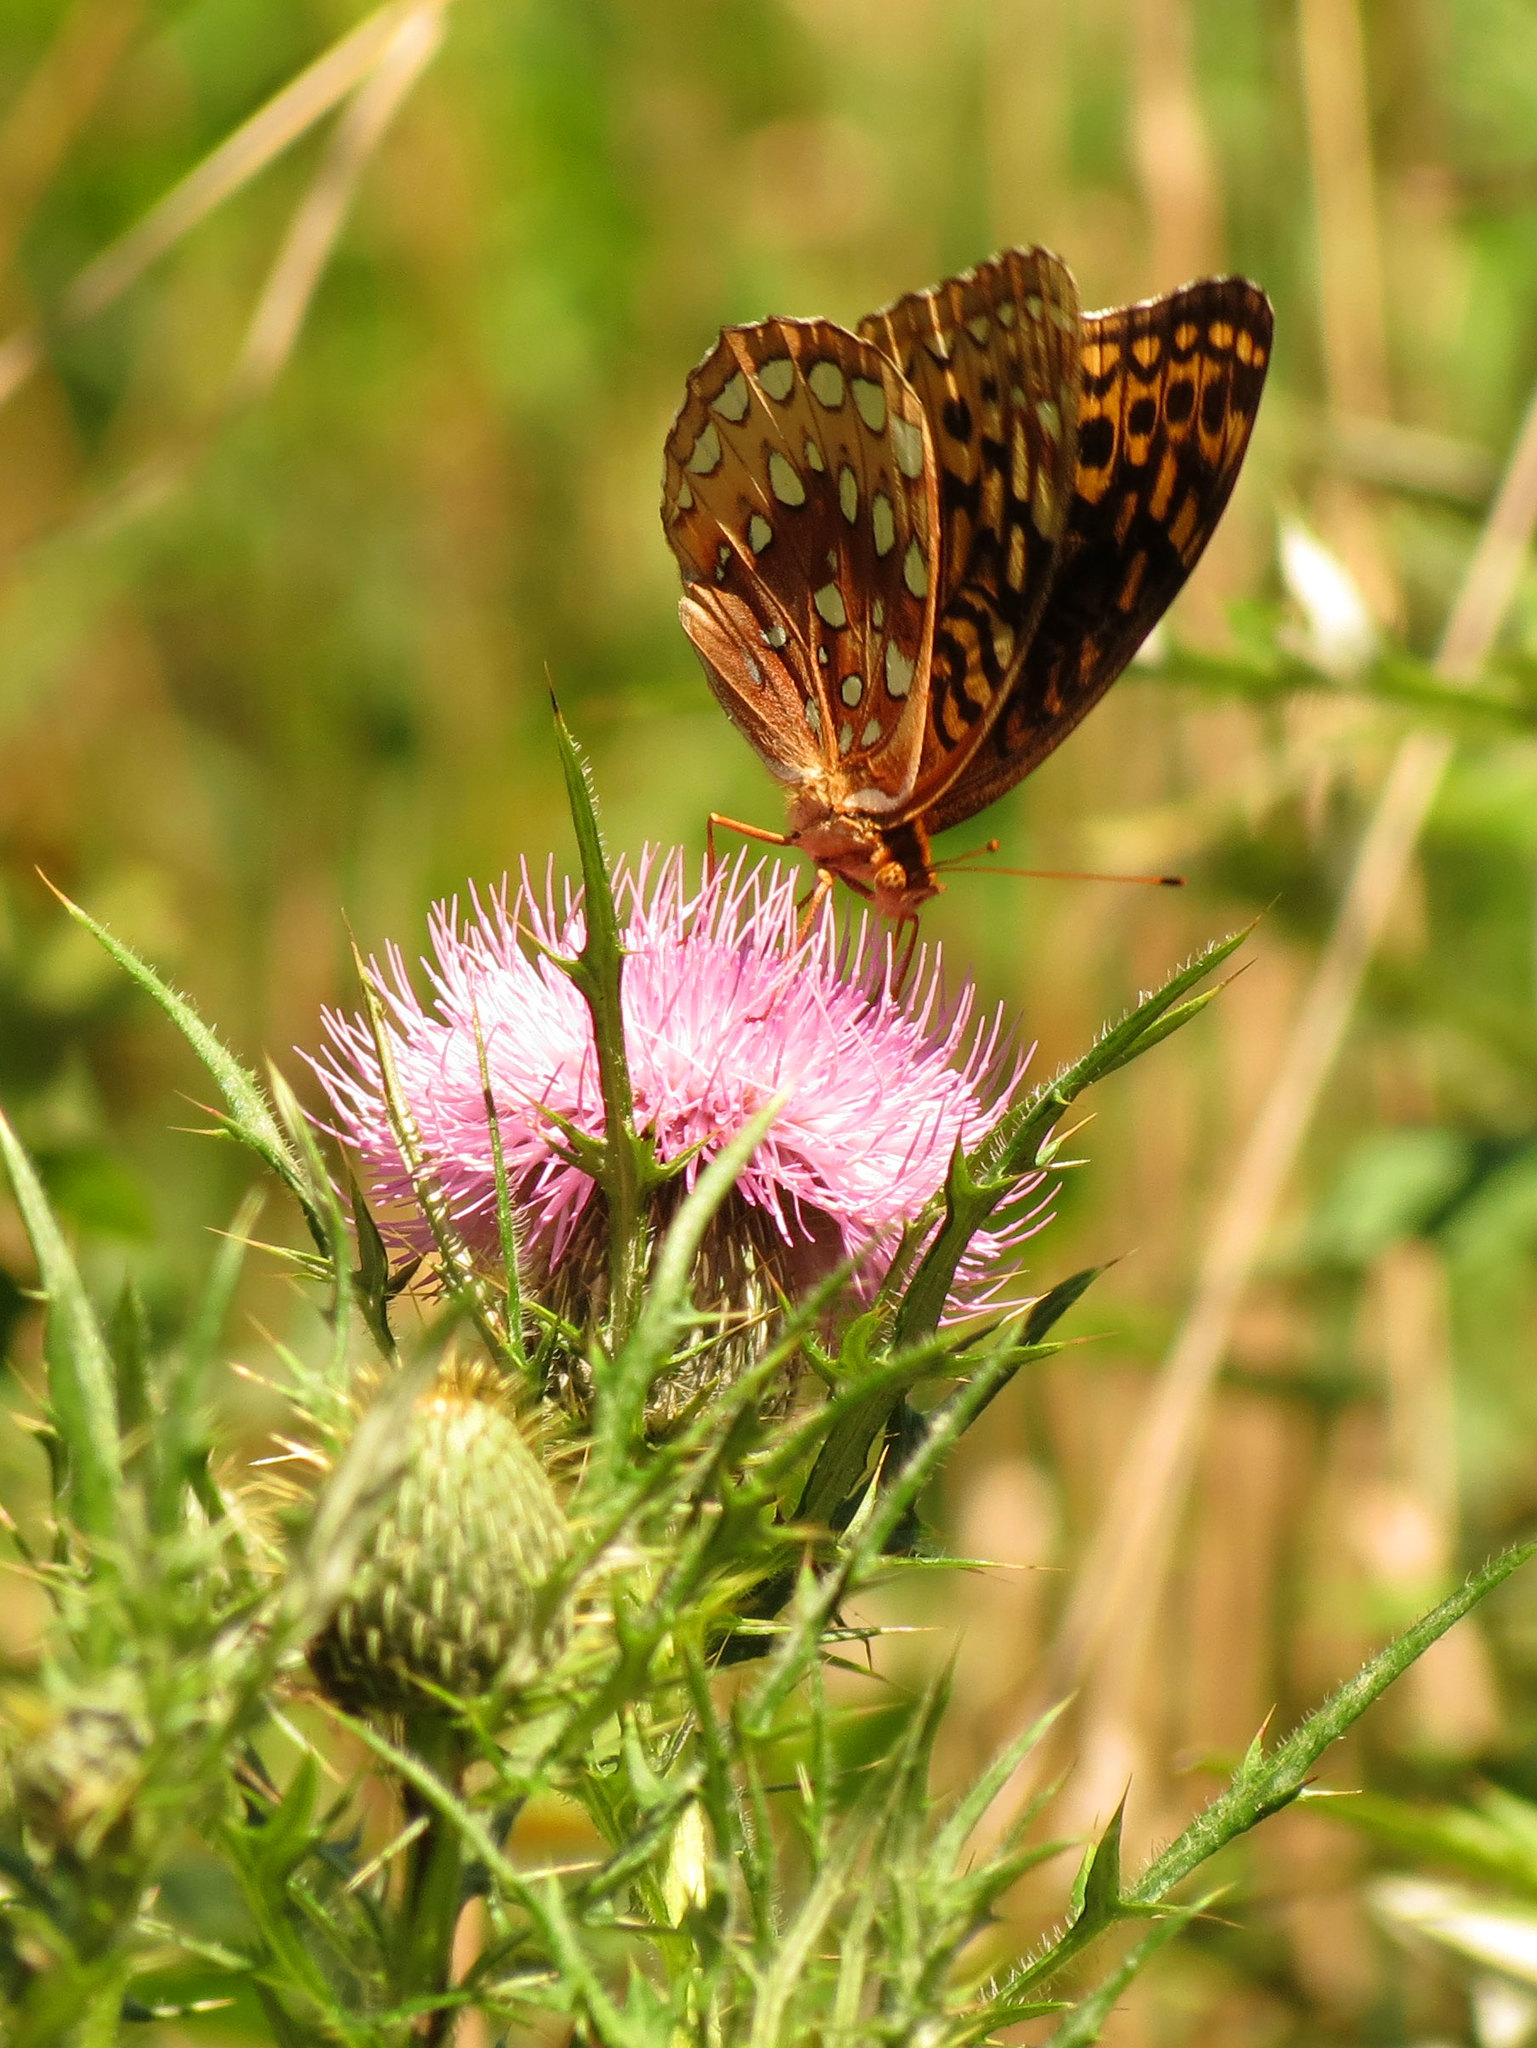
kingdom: Animalia
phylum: Arthropoda
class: Insecta
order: Lepidoptera
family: Nymphalidae
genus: Speyeria
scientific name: Speyeria cybele
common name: Great spangled fritillary
